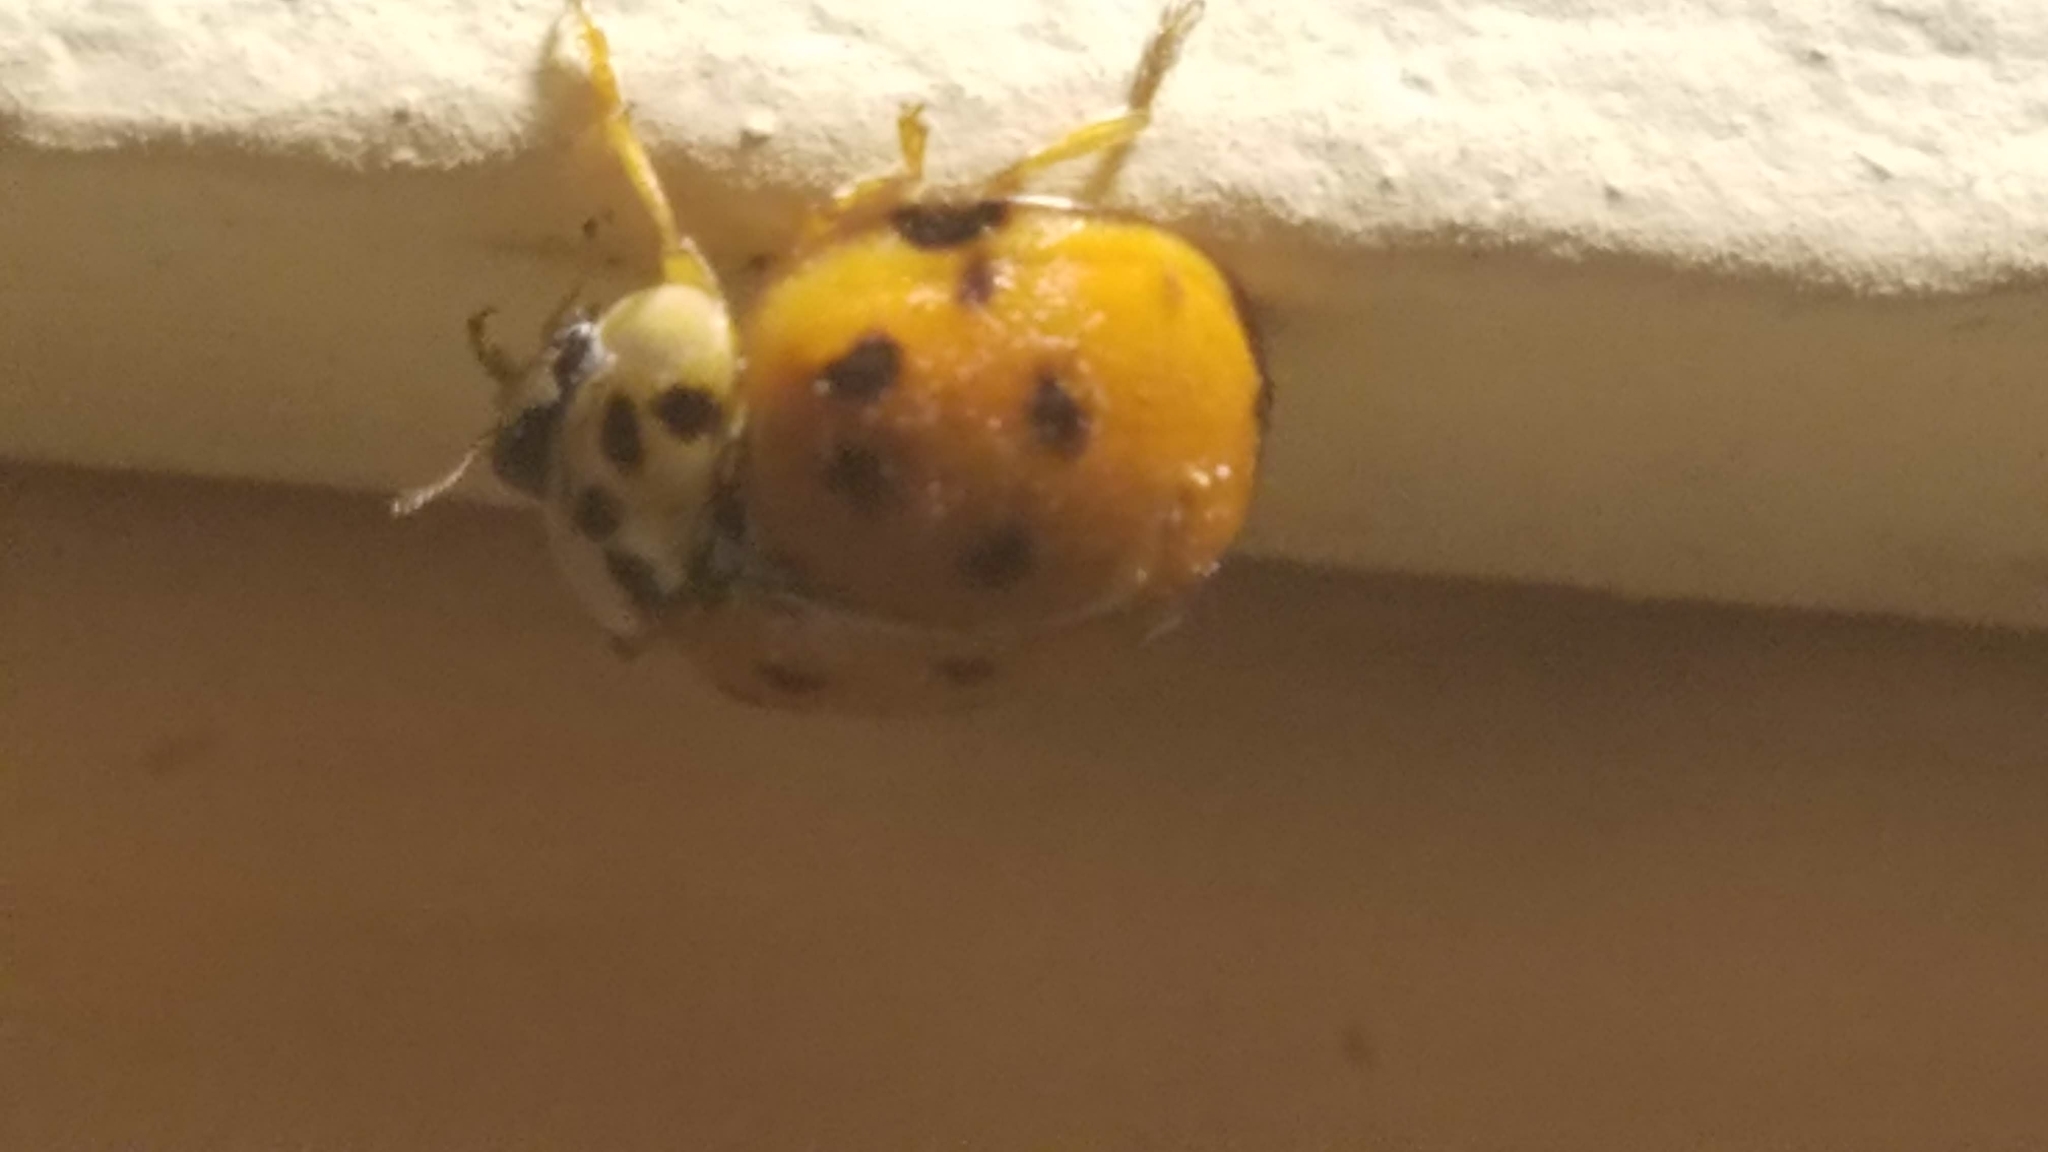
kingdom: Animalia
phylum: Arthropoda
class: Insecta
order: Coleoptera
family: Coccinellidae
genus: Harmonia
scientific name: Harmonia axyridis
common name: Harlequin ladybird
